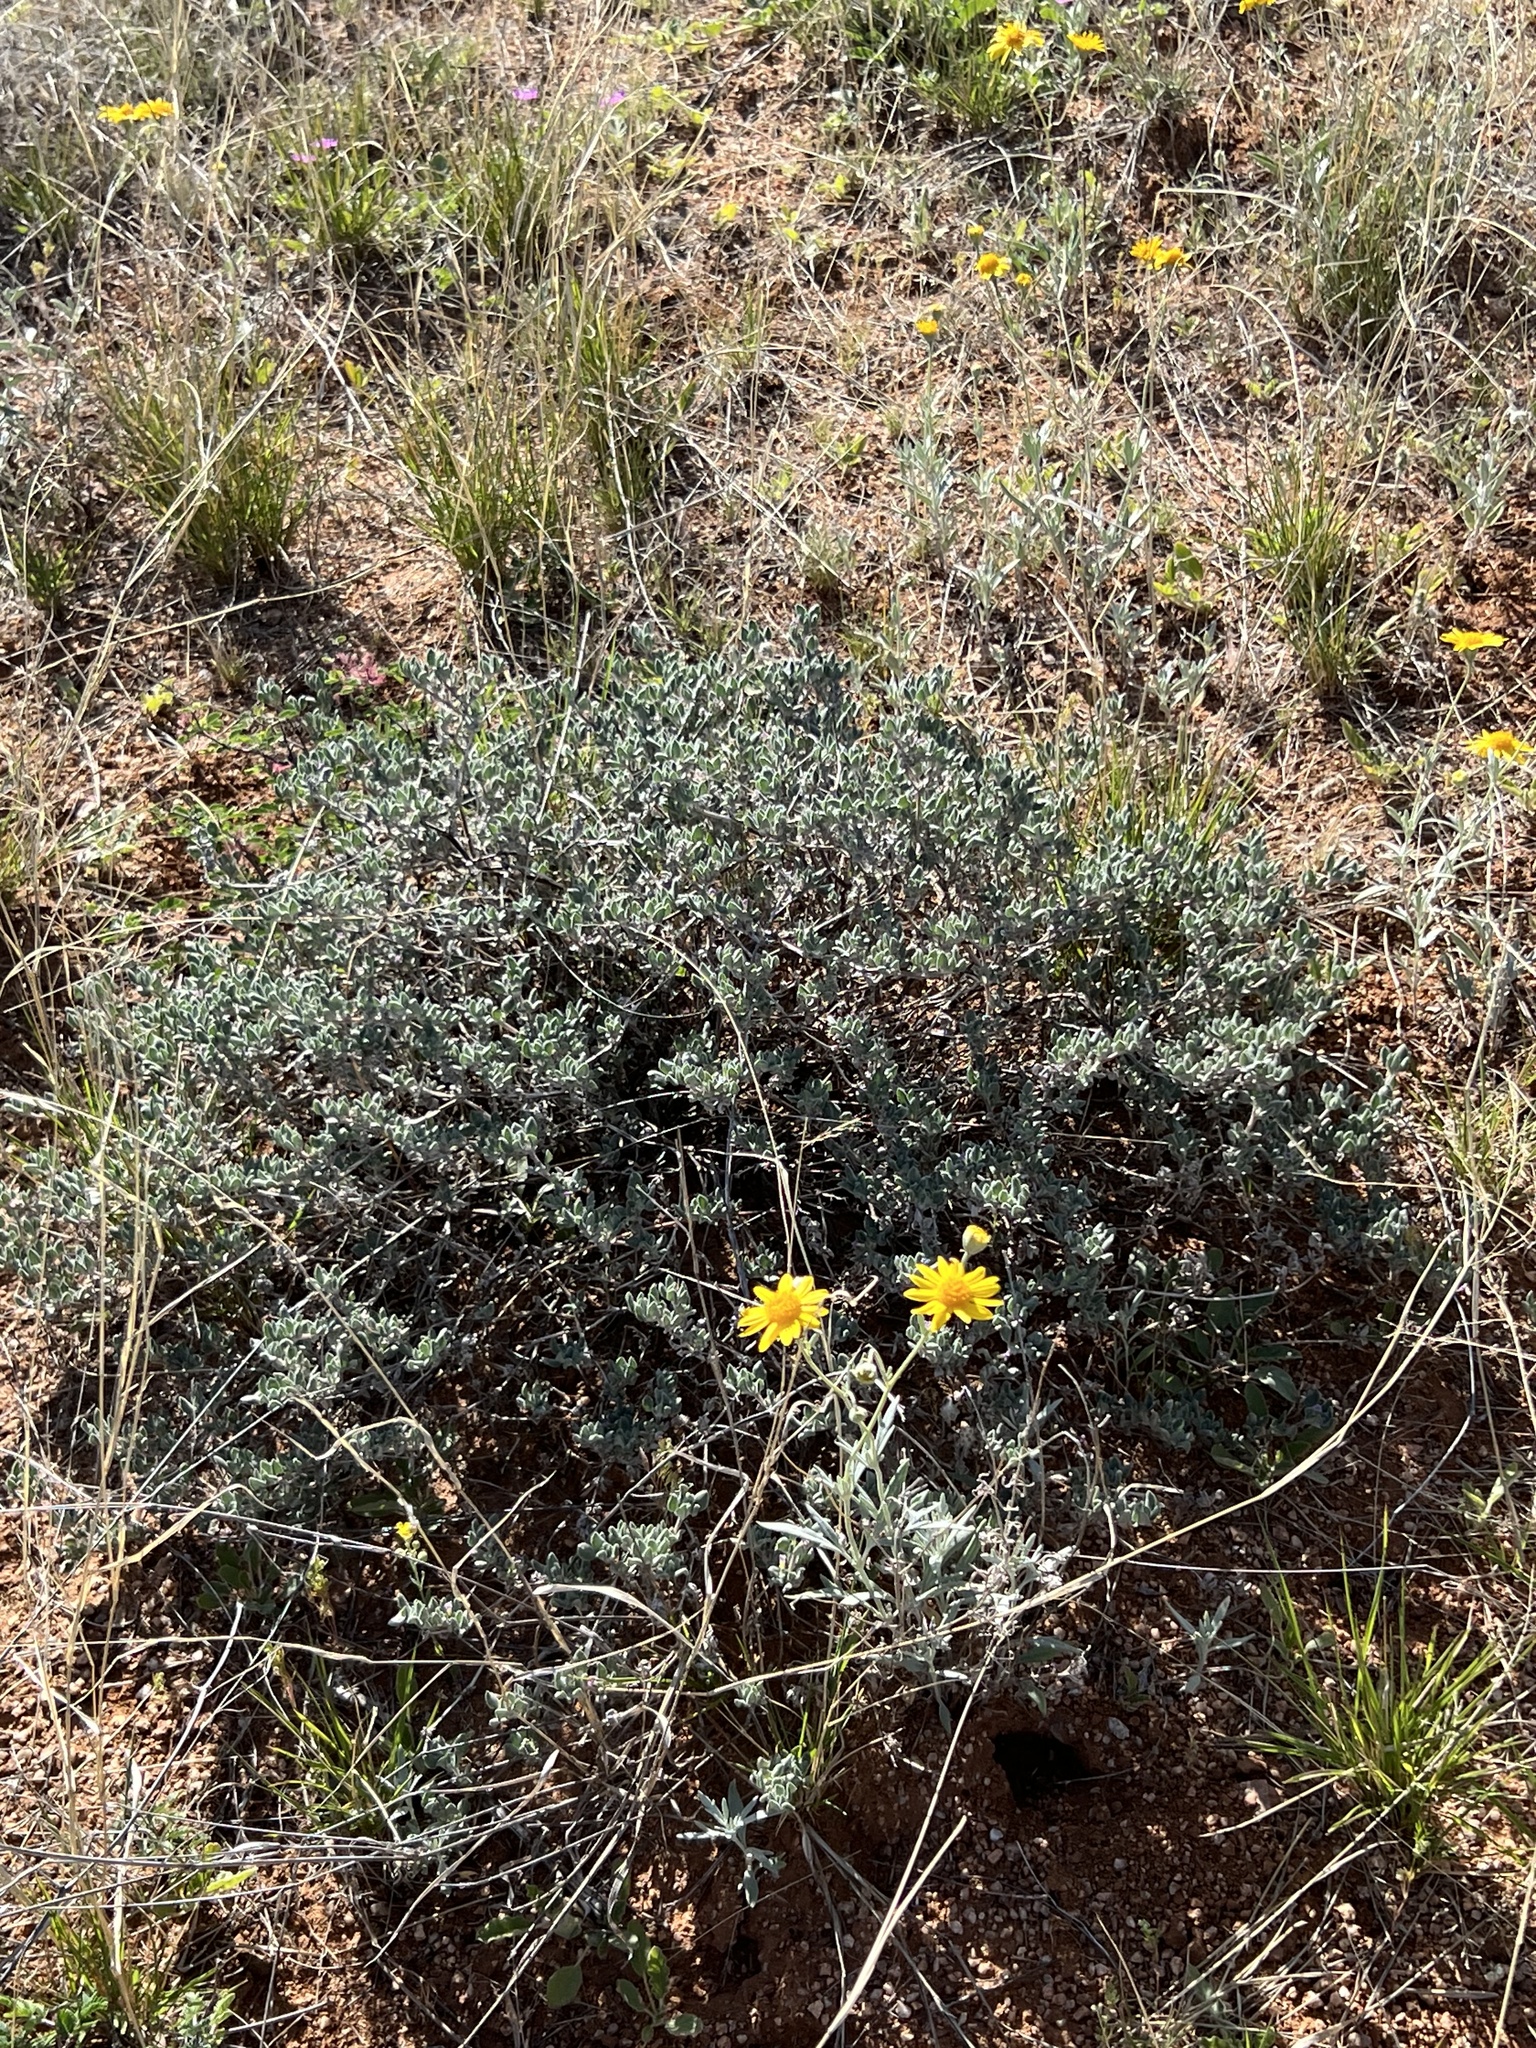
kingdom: Plantae
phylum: Tracheophyta
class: Magnoliopsida
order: Boraginales
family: Ehretiaceae
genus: Tiquilia
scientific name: Tiquilia canescens
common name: Hairy tiquilia
